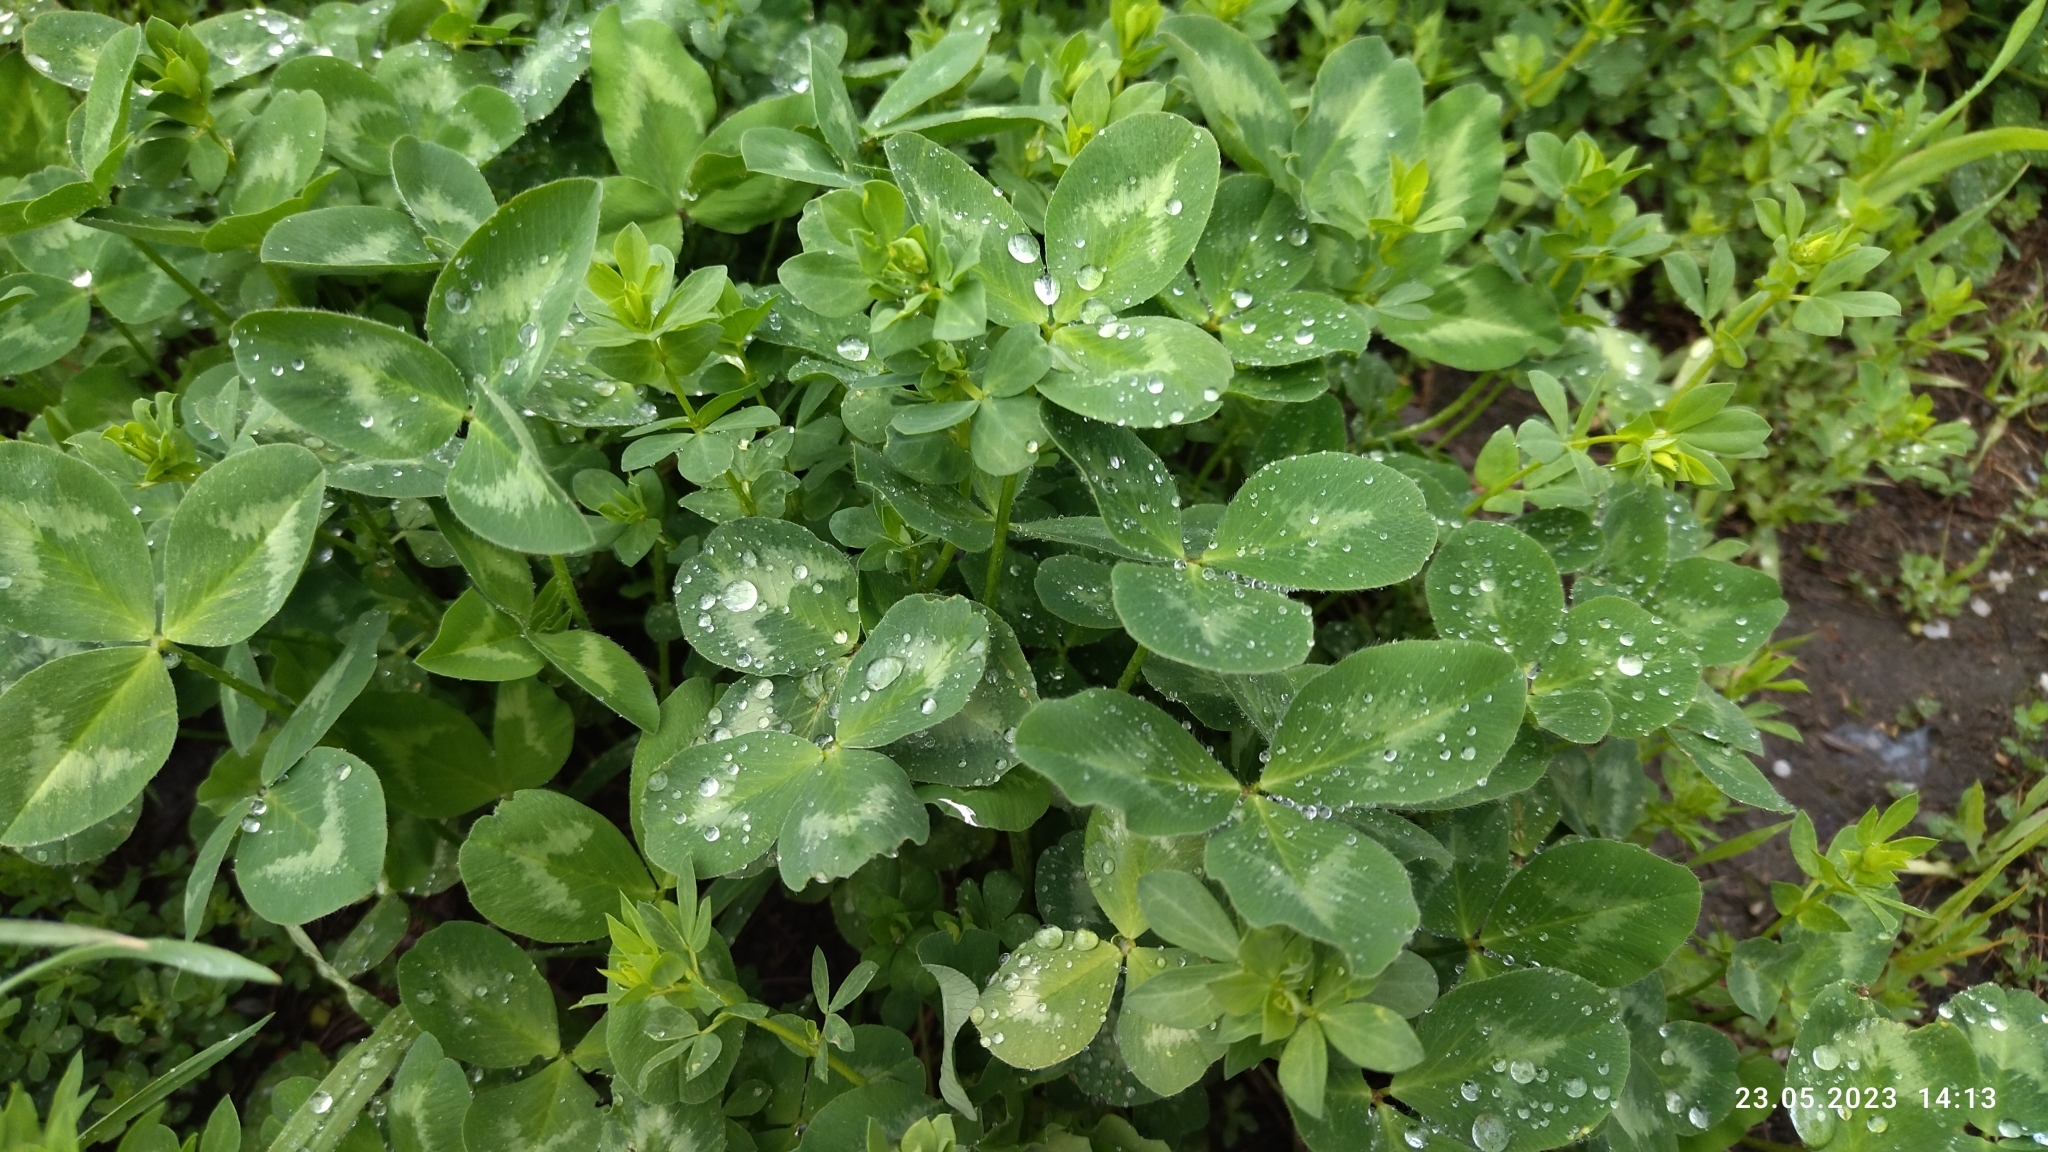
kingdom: Plantae
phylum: Tracheophyta
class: Magnoliopsida
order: Fabales
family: Fabaceae
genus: Trifolium
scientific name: Trifolium pratense
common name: Red clover
